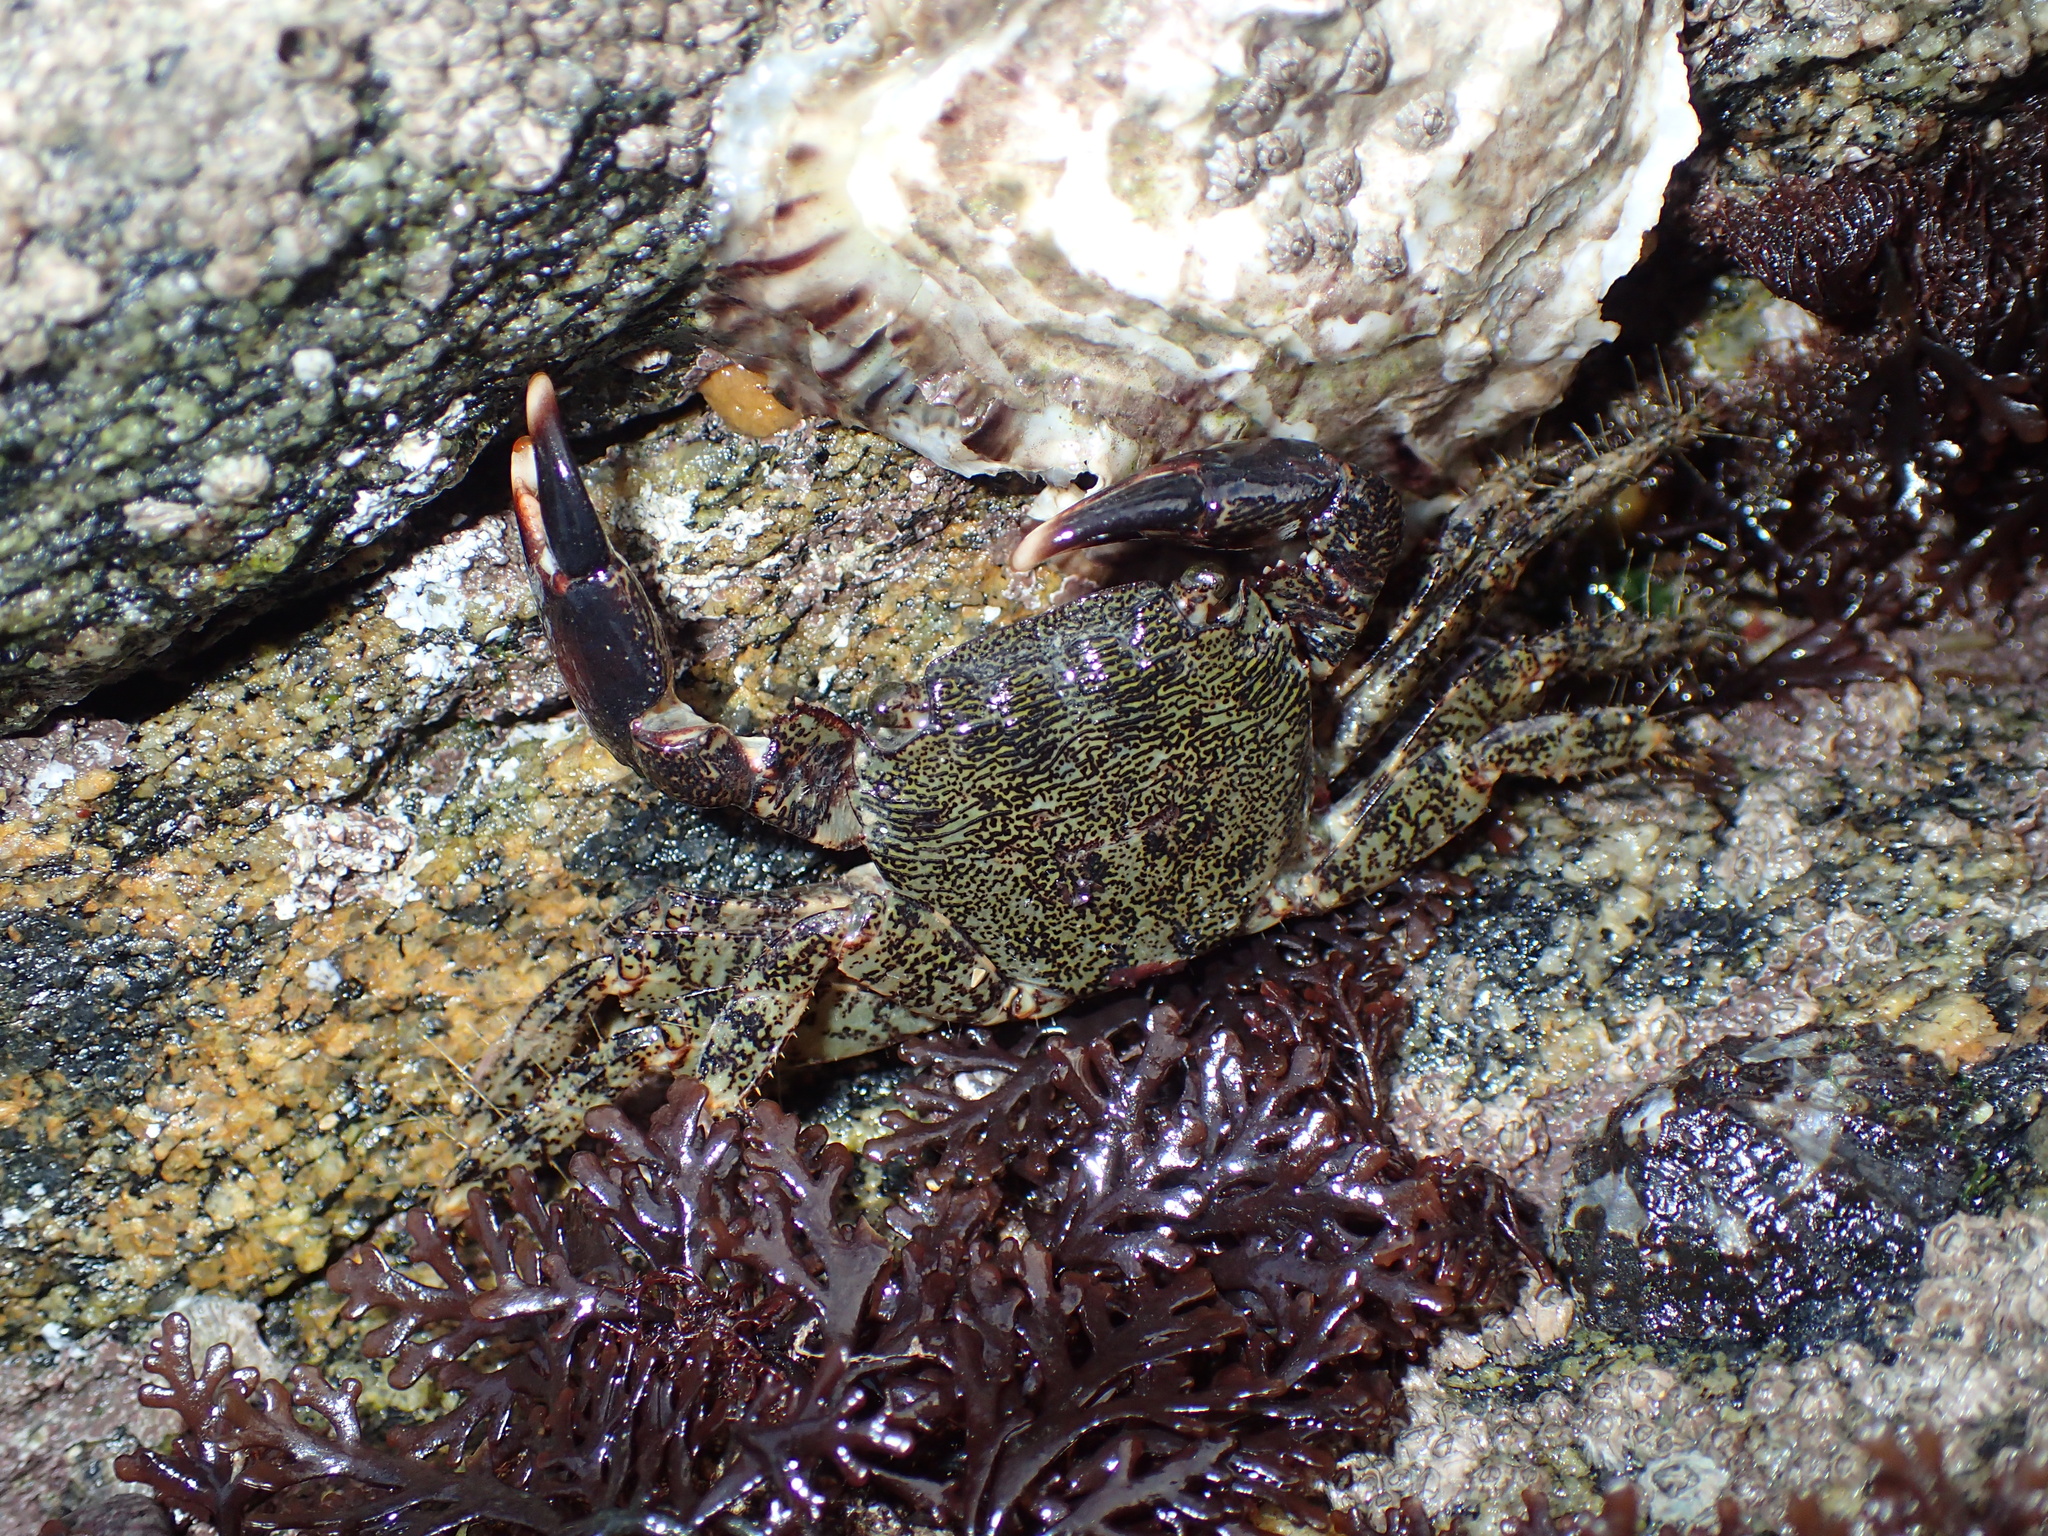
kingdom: Animalia
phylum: Arthropoda
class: Malacostraca
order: Decapoda
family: Grapsidae
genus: Pachygrapsus
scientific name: Pachygrapsus marmoratus
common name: Marbled rock crab
